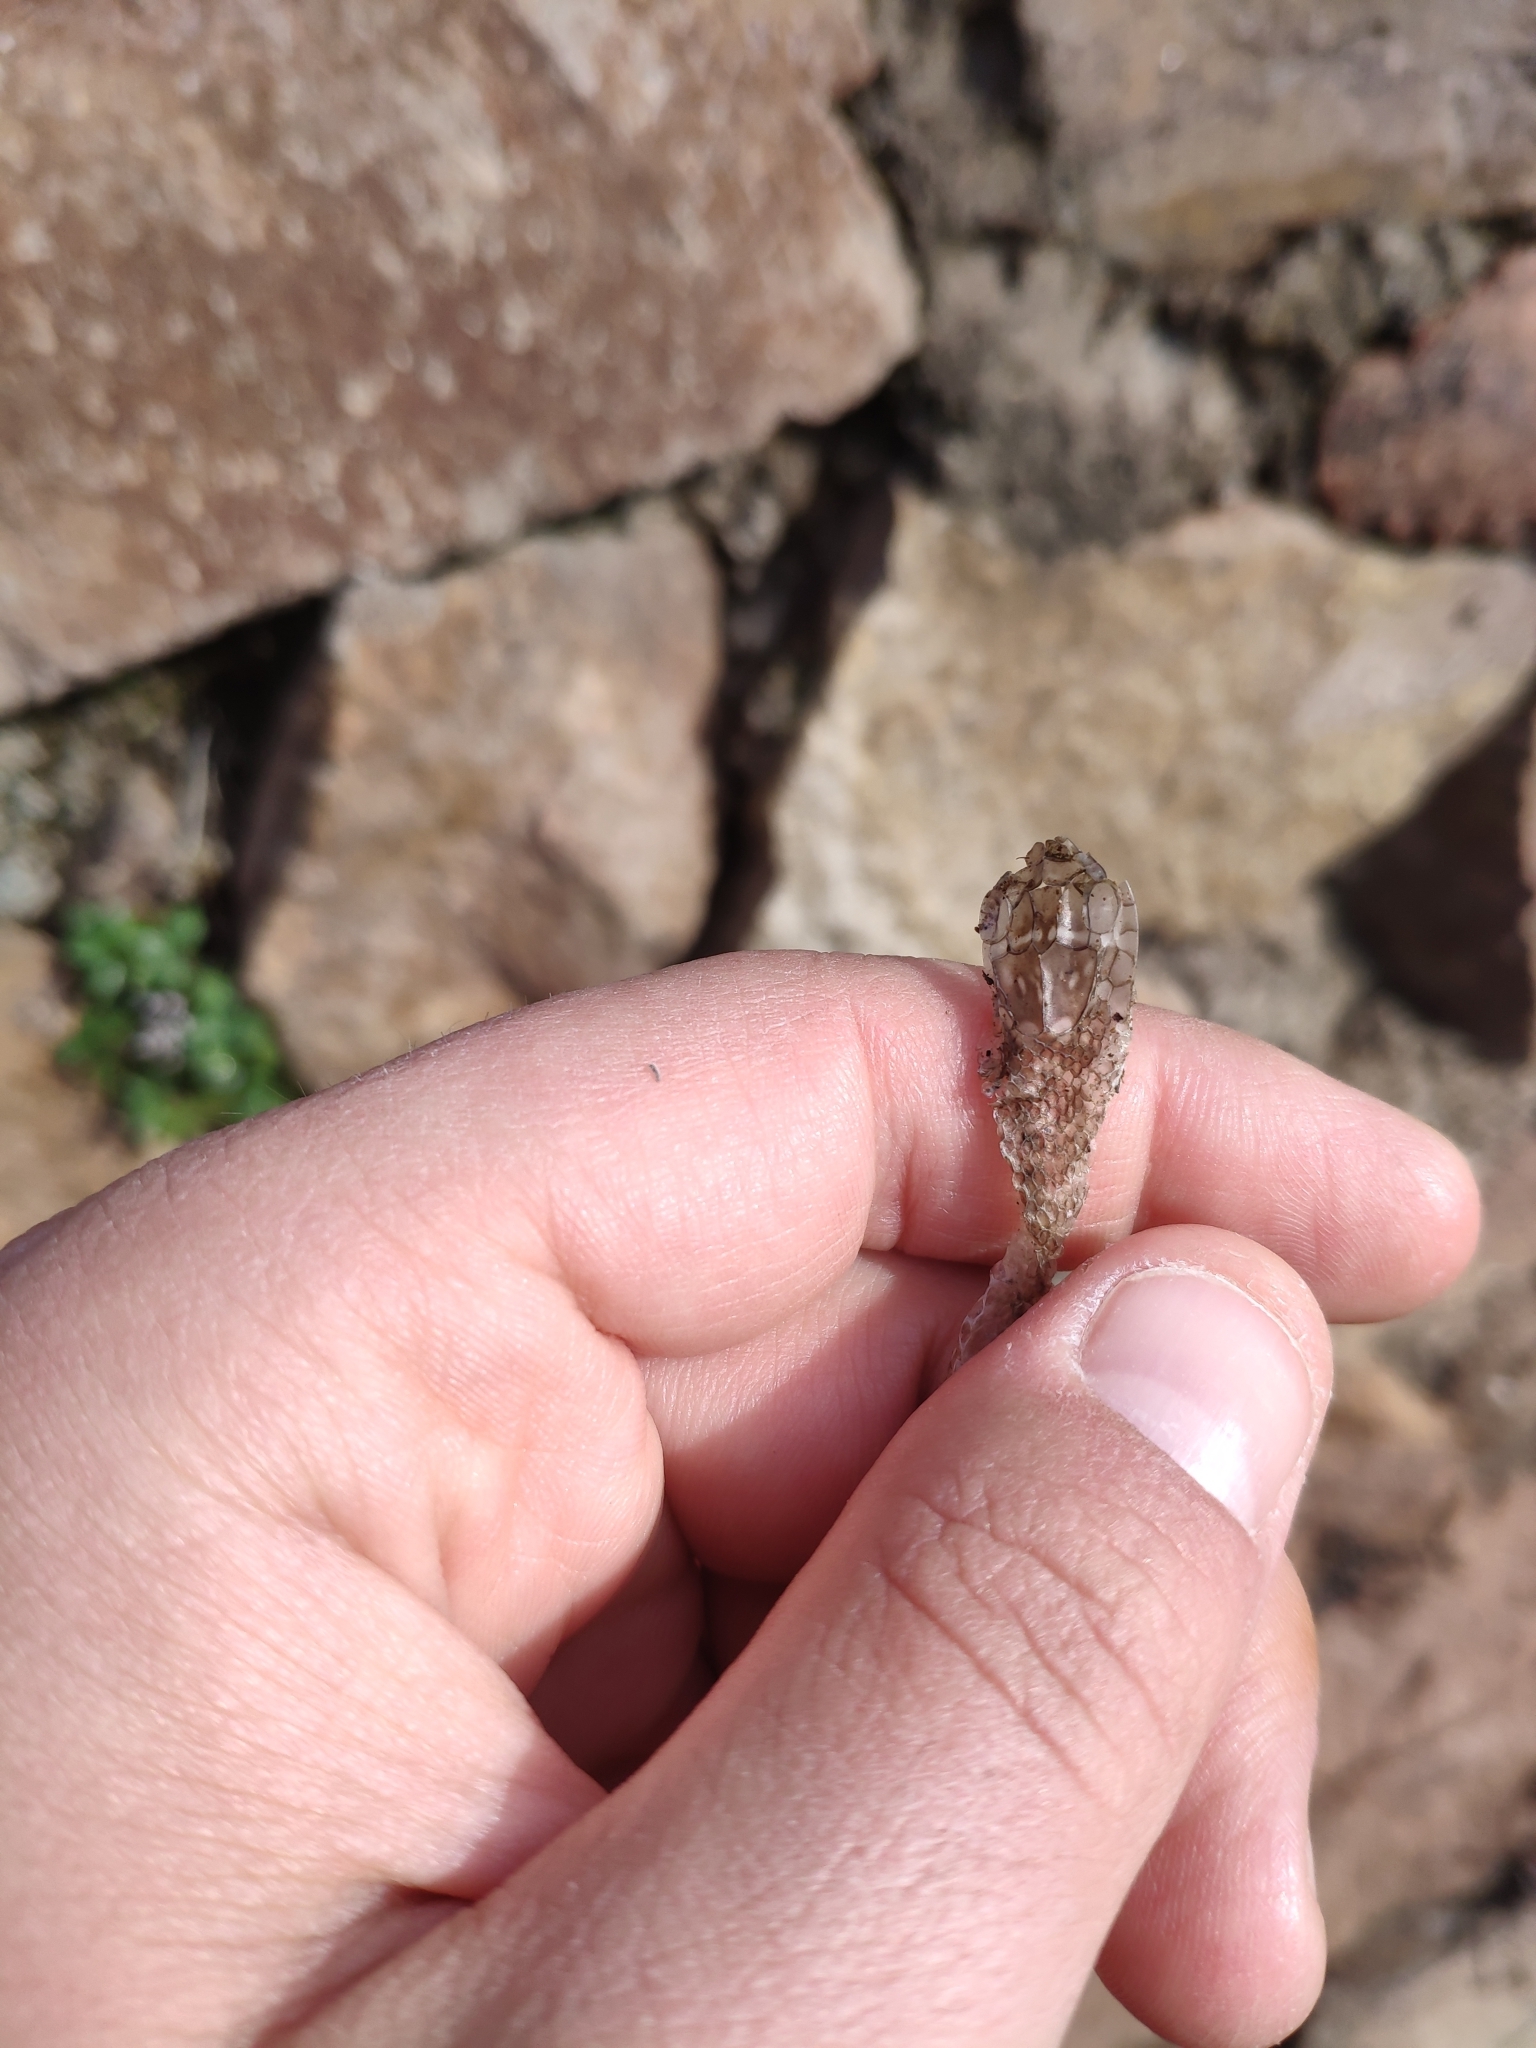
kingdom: Animalia
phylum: Chordata
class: Squamata
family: Colubridae
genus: Hierophis
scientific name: Hierophis viridiflavus
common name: Green whip snake
